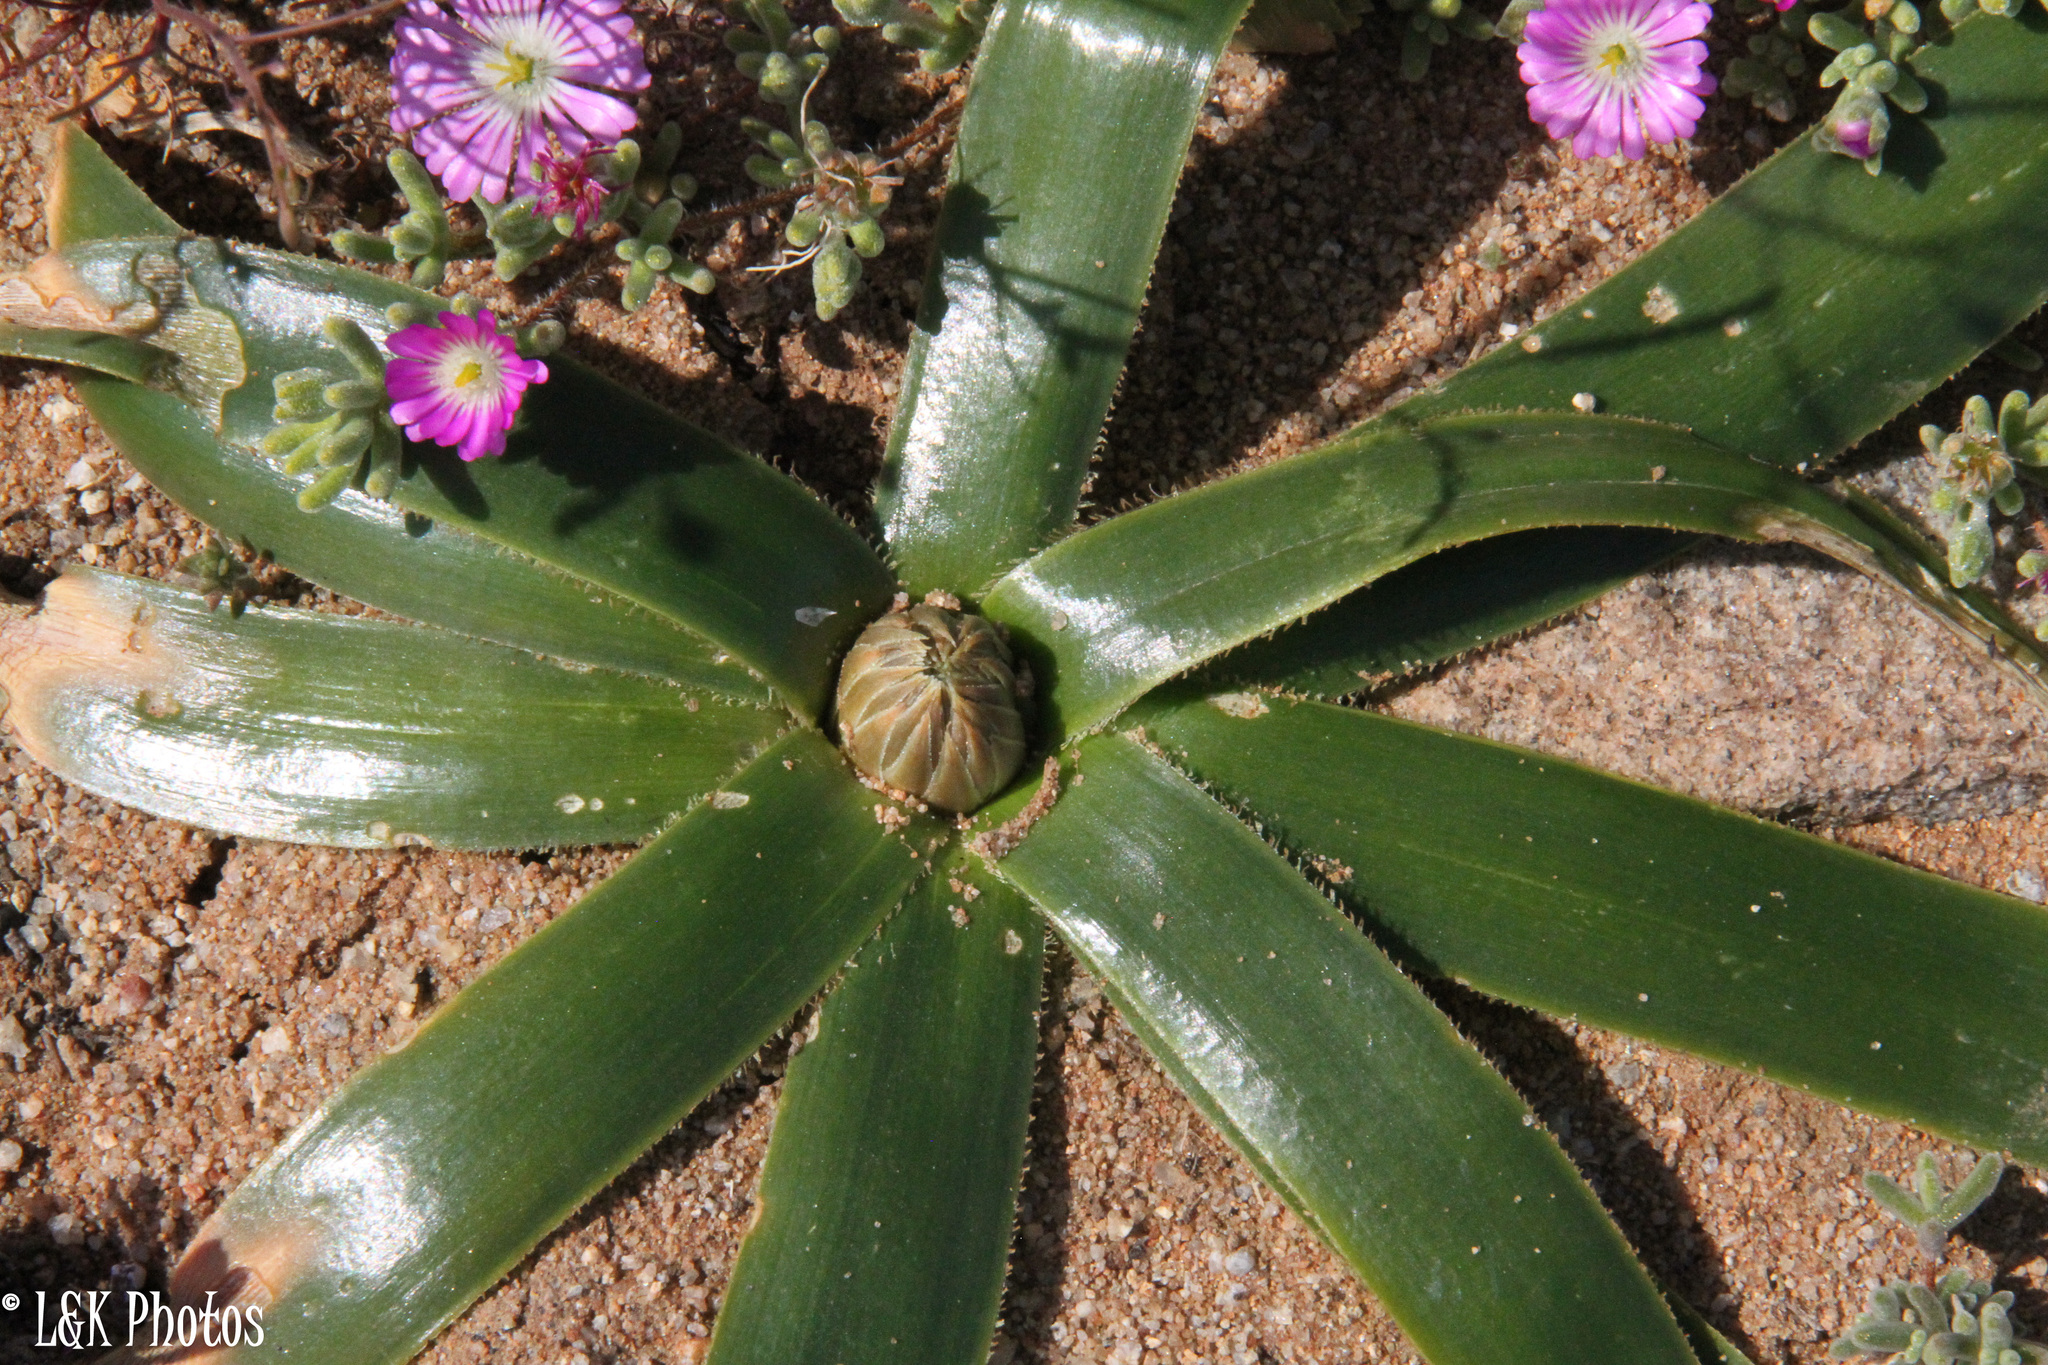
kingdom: Plantae
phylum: Tracheophyta
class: Liliopsida
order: Asparagales
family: Asparagaceae
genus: Albuca
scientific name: Albuca secunda
